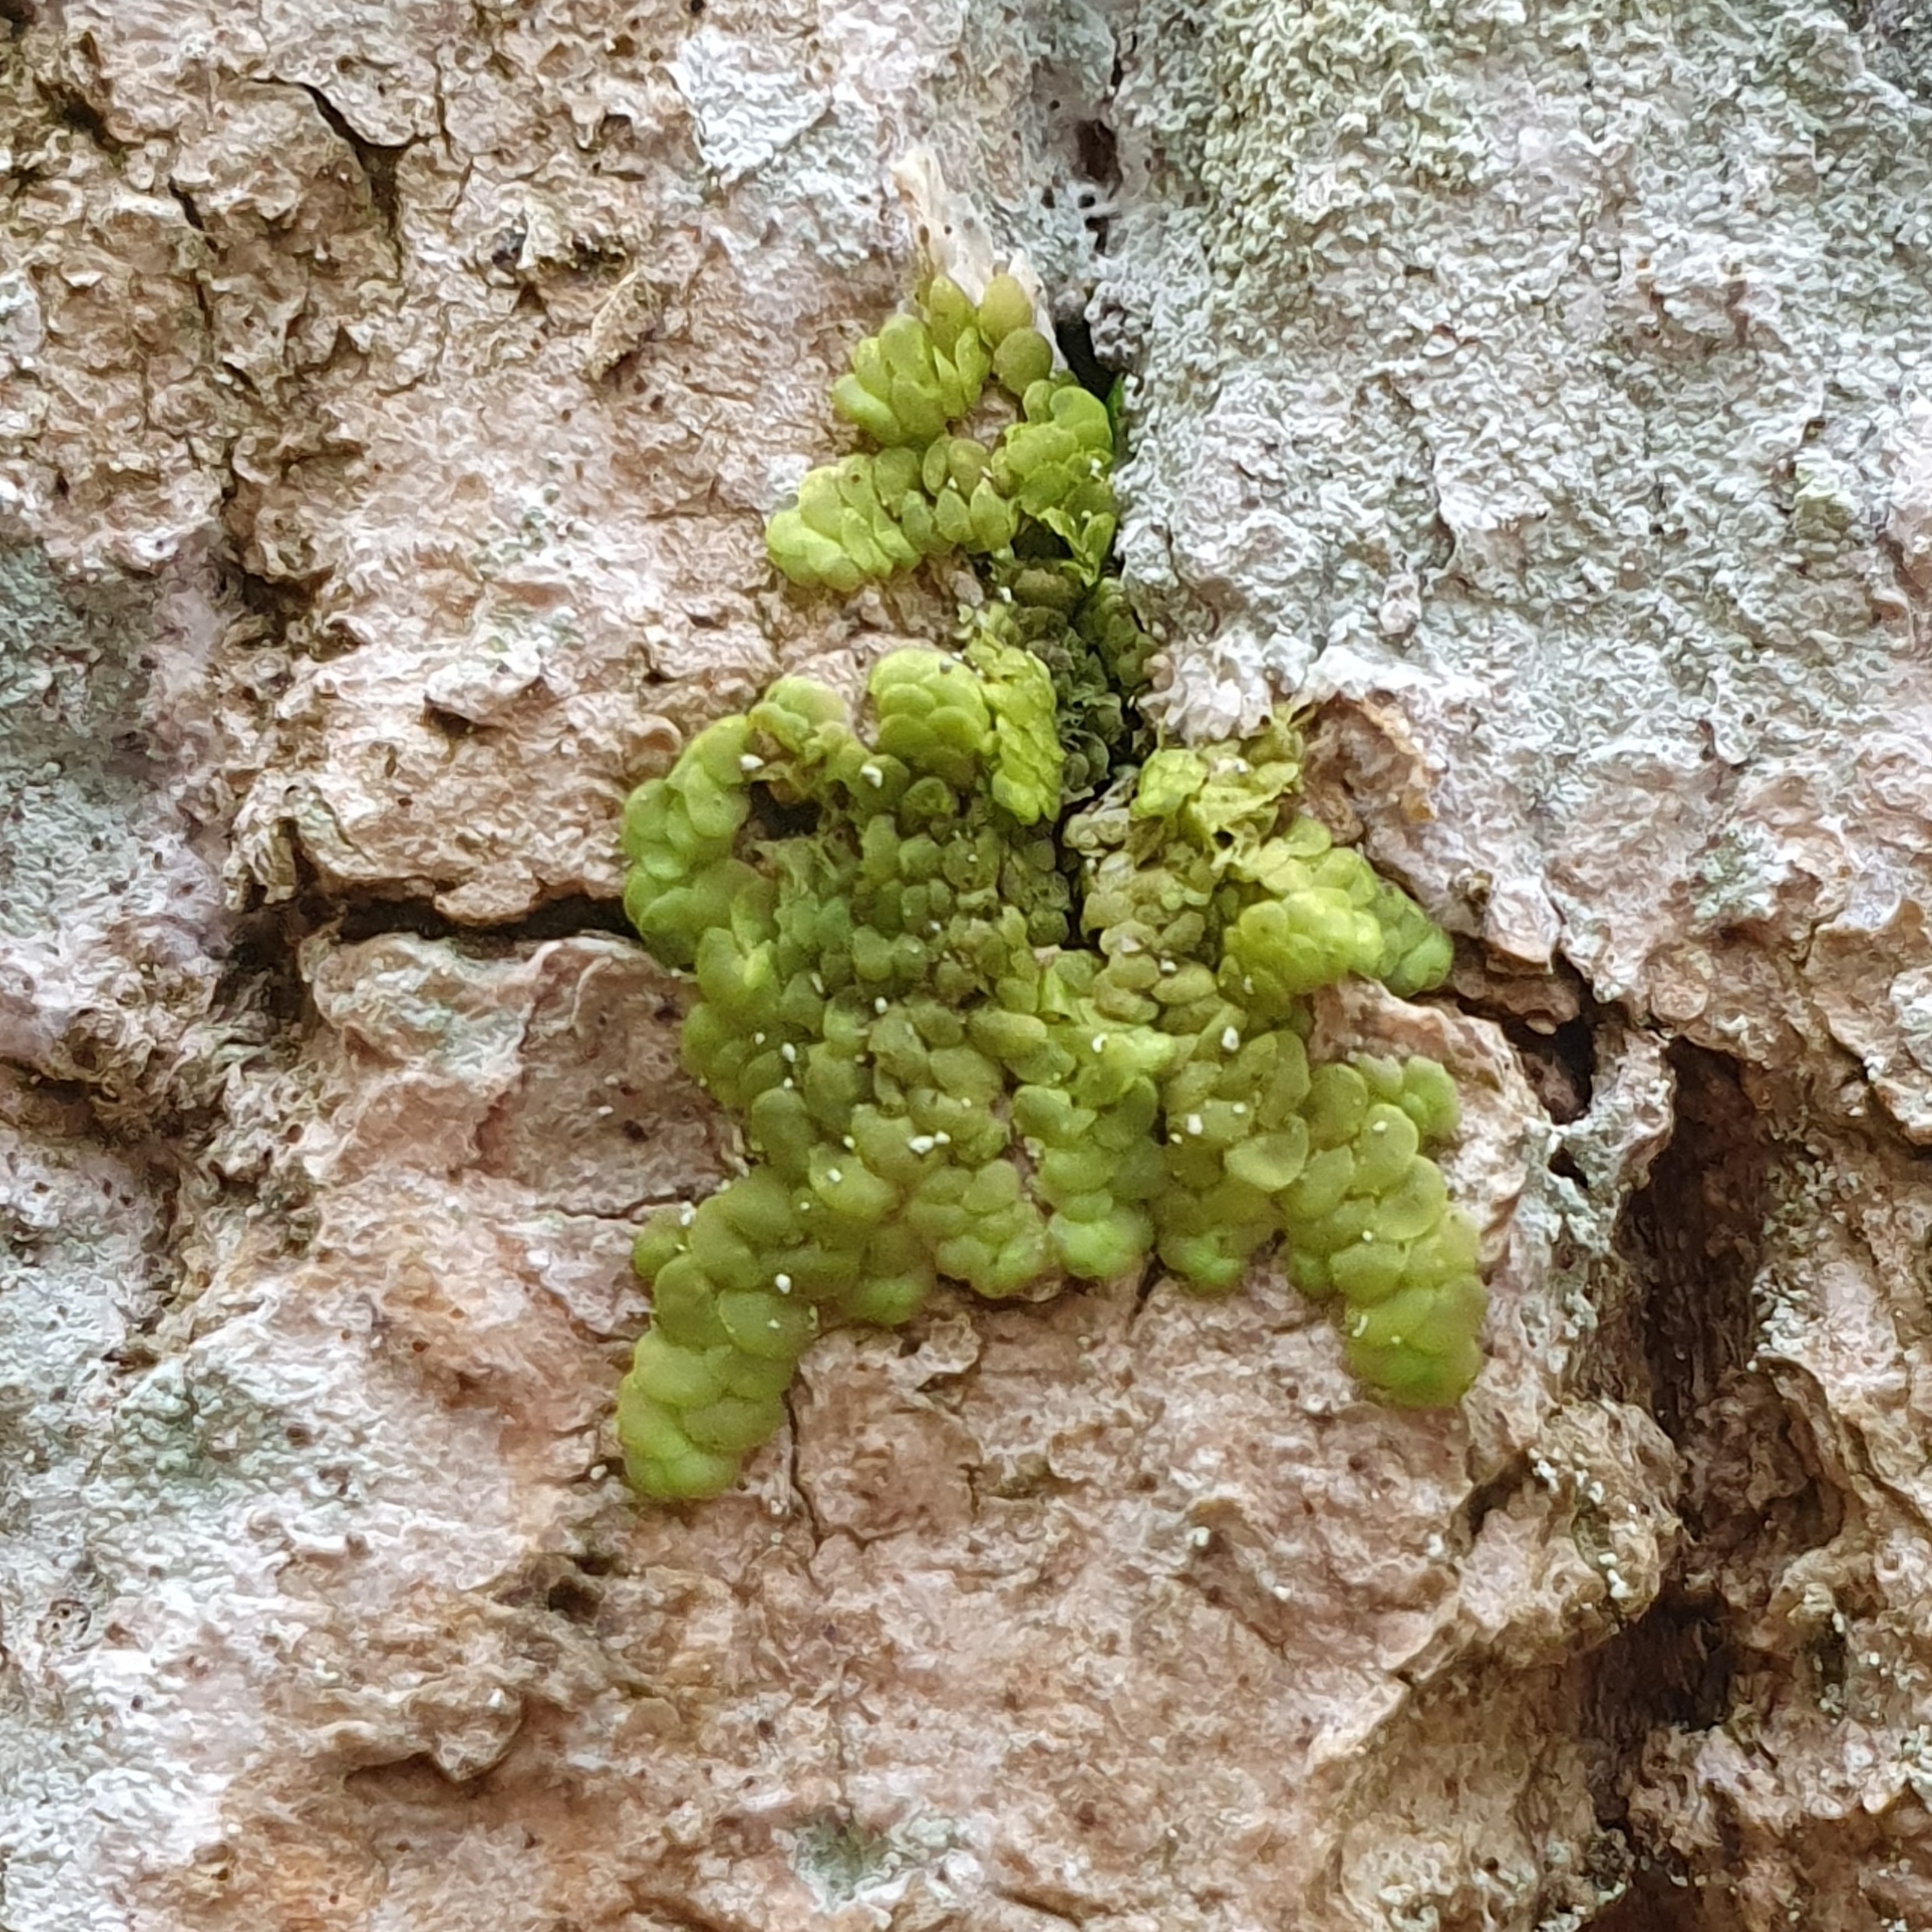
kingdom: Plantae
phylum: Marchantiophyta
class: Jungermanniopsida
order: Porellales
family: Radulaceae
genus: Radula
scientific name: Radula complanata
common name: Flat-leaved scalewort
